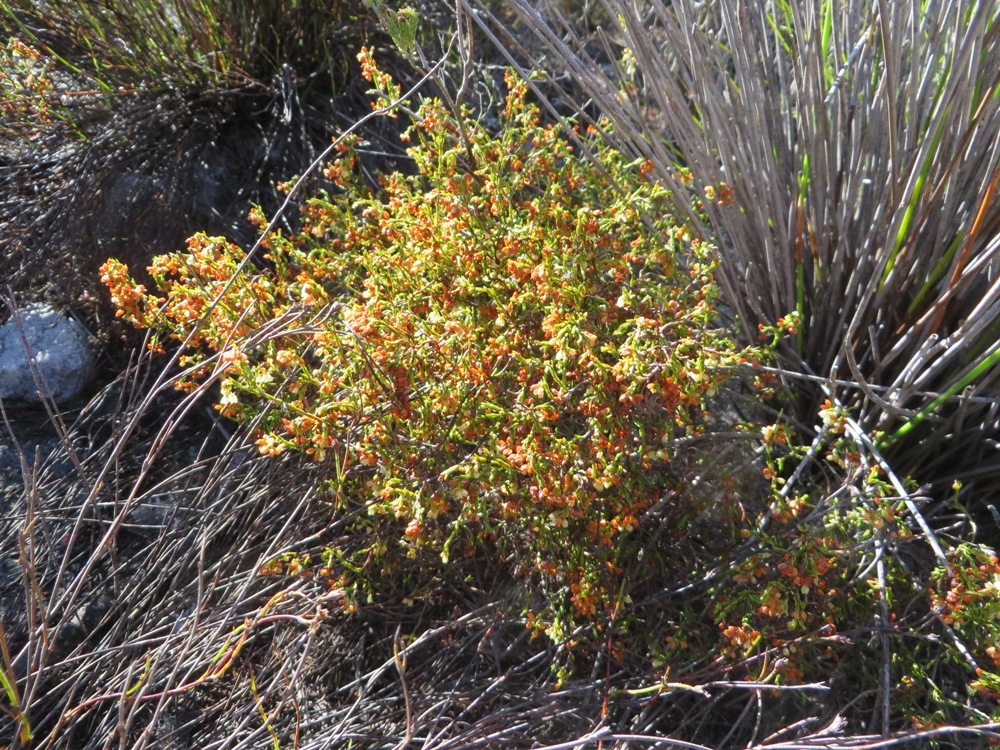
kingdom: Plantae
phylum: Tracheophyta
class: Magnoliopsida
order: Ericales
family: Ericaceae
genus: Erica
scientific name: Erica multiflexuosa
